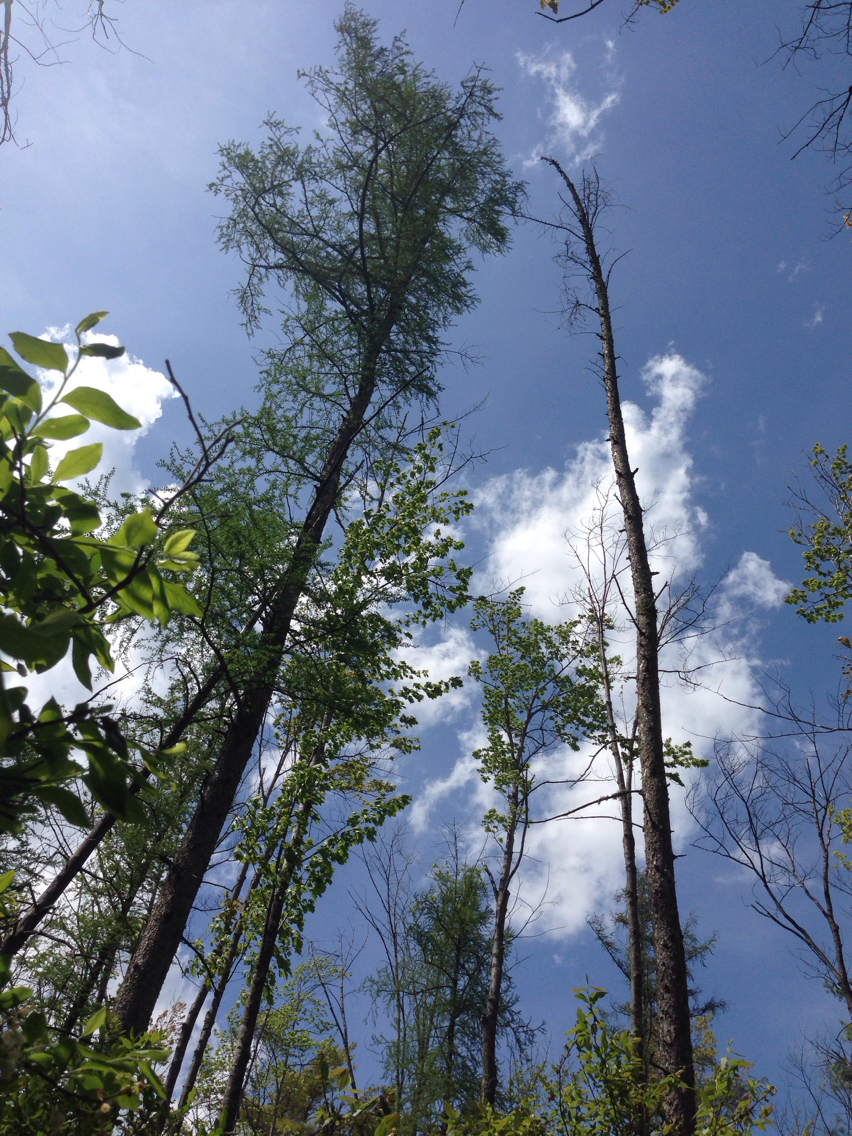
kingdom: Plantae
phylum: Tracheophyta
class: Pinopsida
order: Pinales
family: Pinaceae
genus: Larix
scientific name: Larix laricina
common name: American larch
